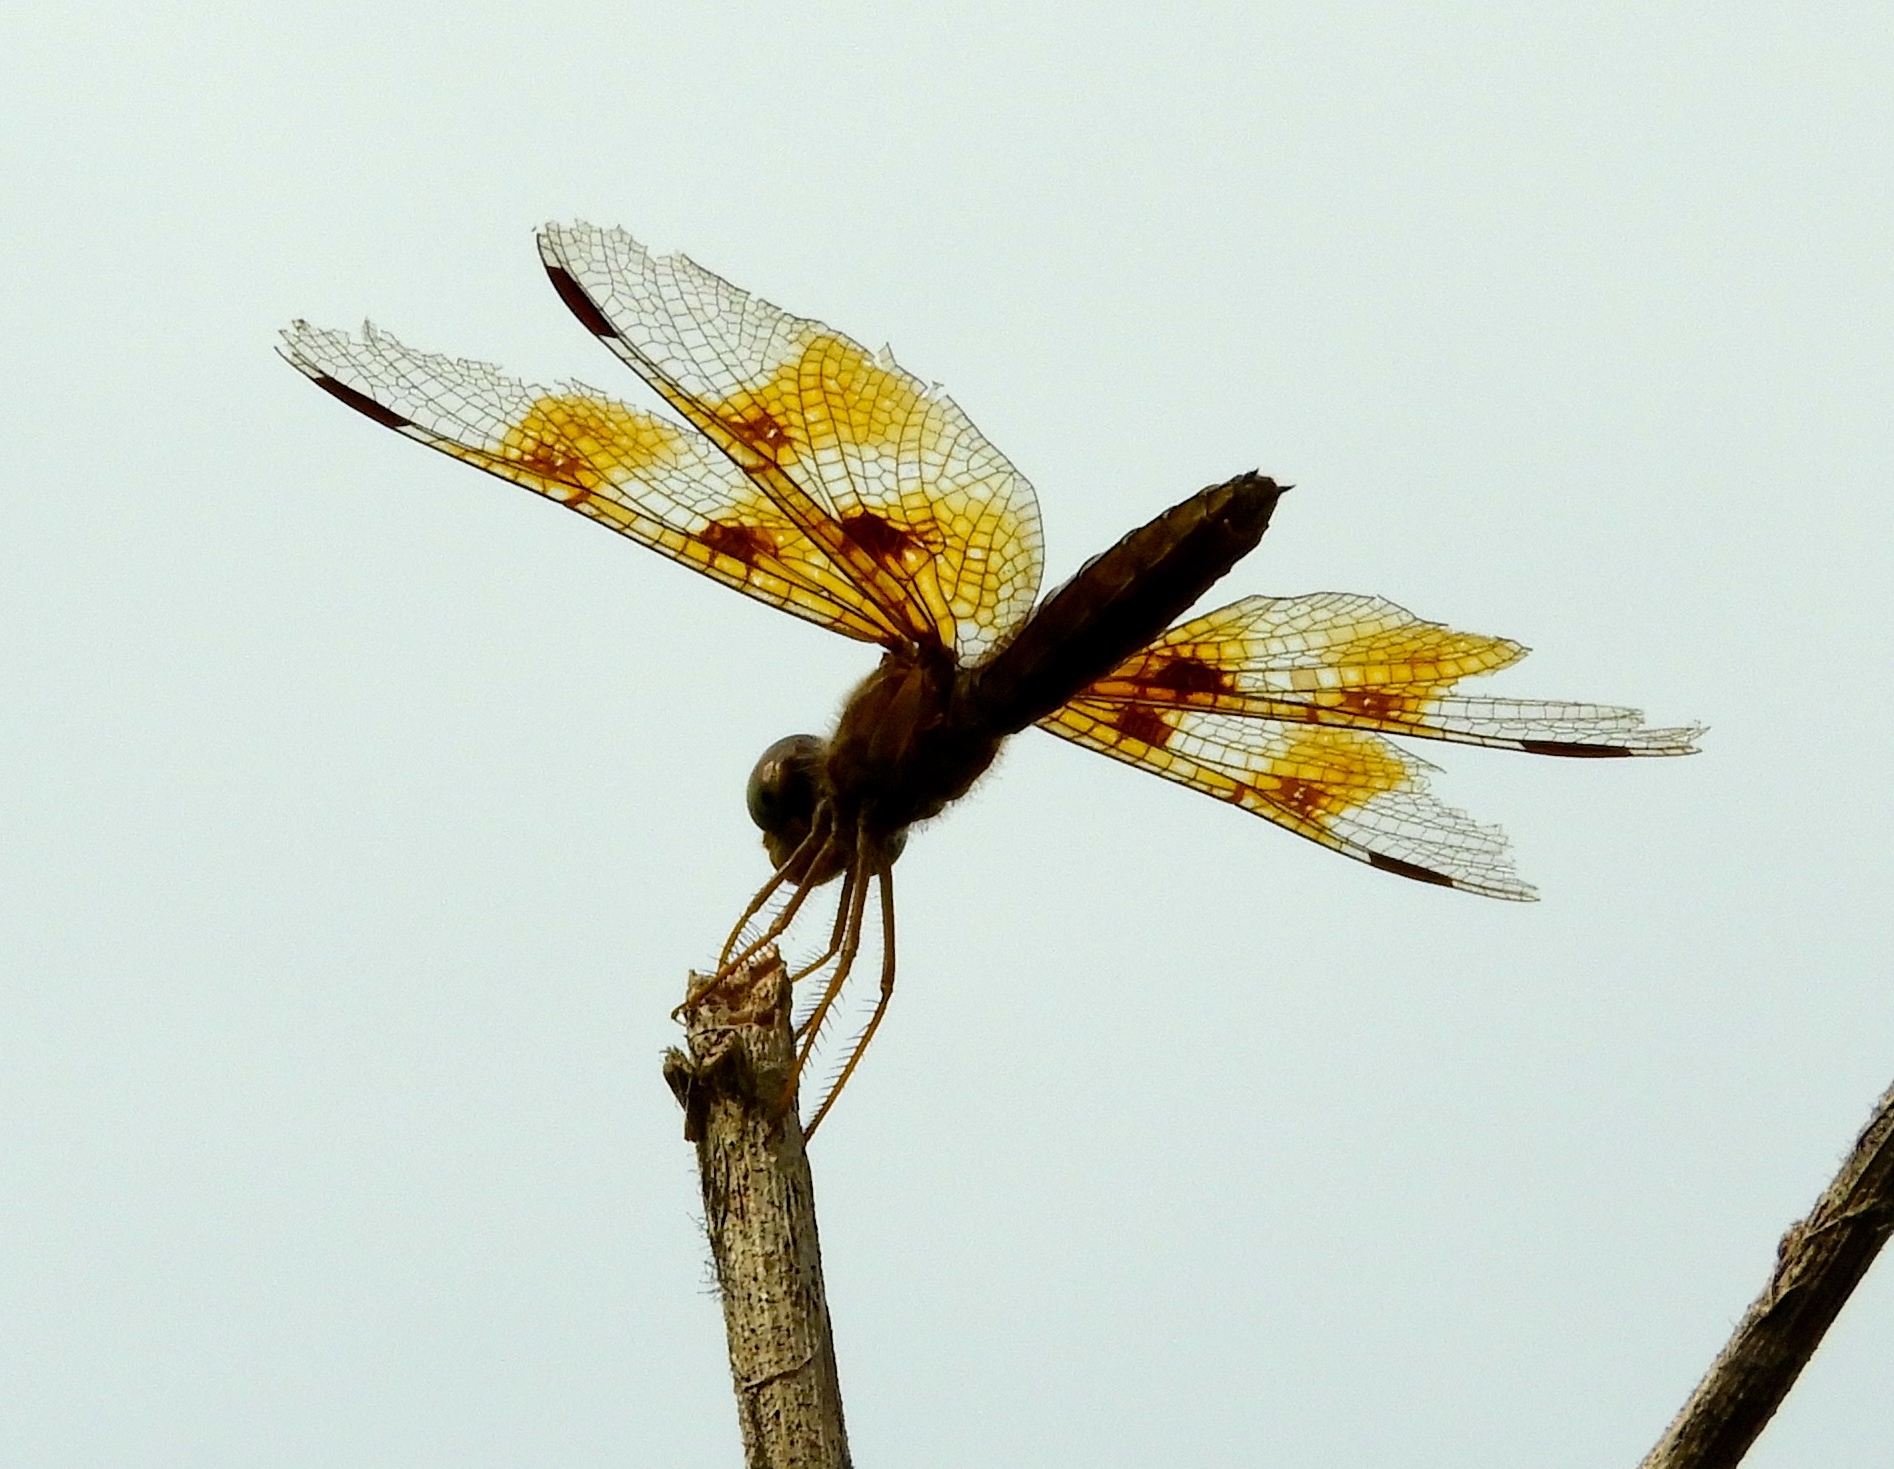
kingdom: Animalia
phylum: Arthropoda
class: Insecta
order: Odonata
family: Libellulidae
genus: Perithemis
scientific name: Perithemis intensa
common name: Mexican amberwing
